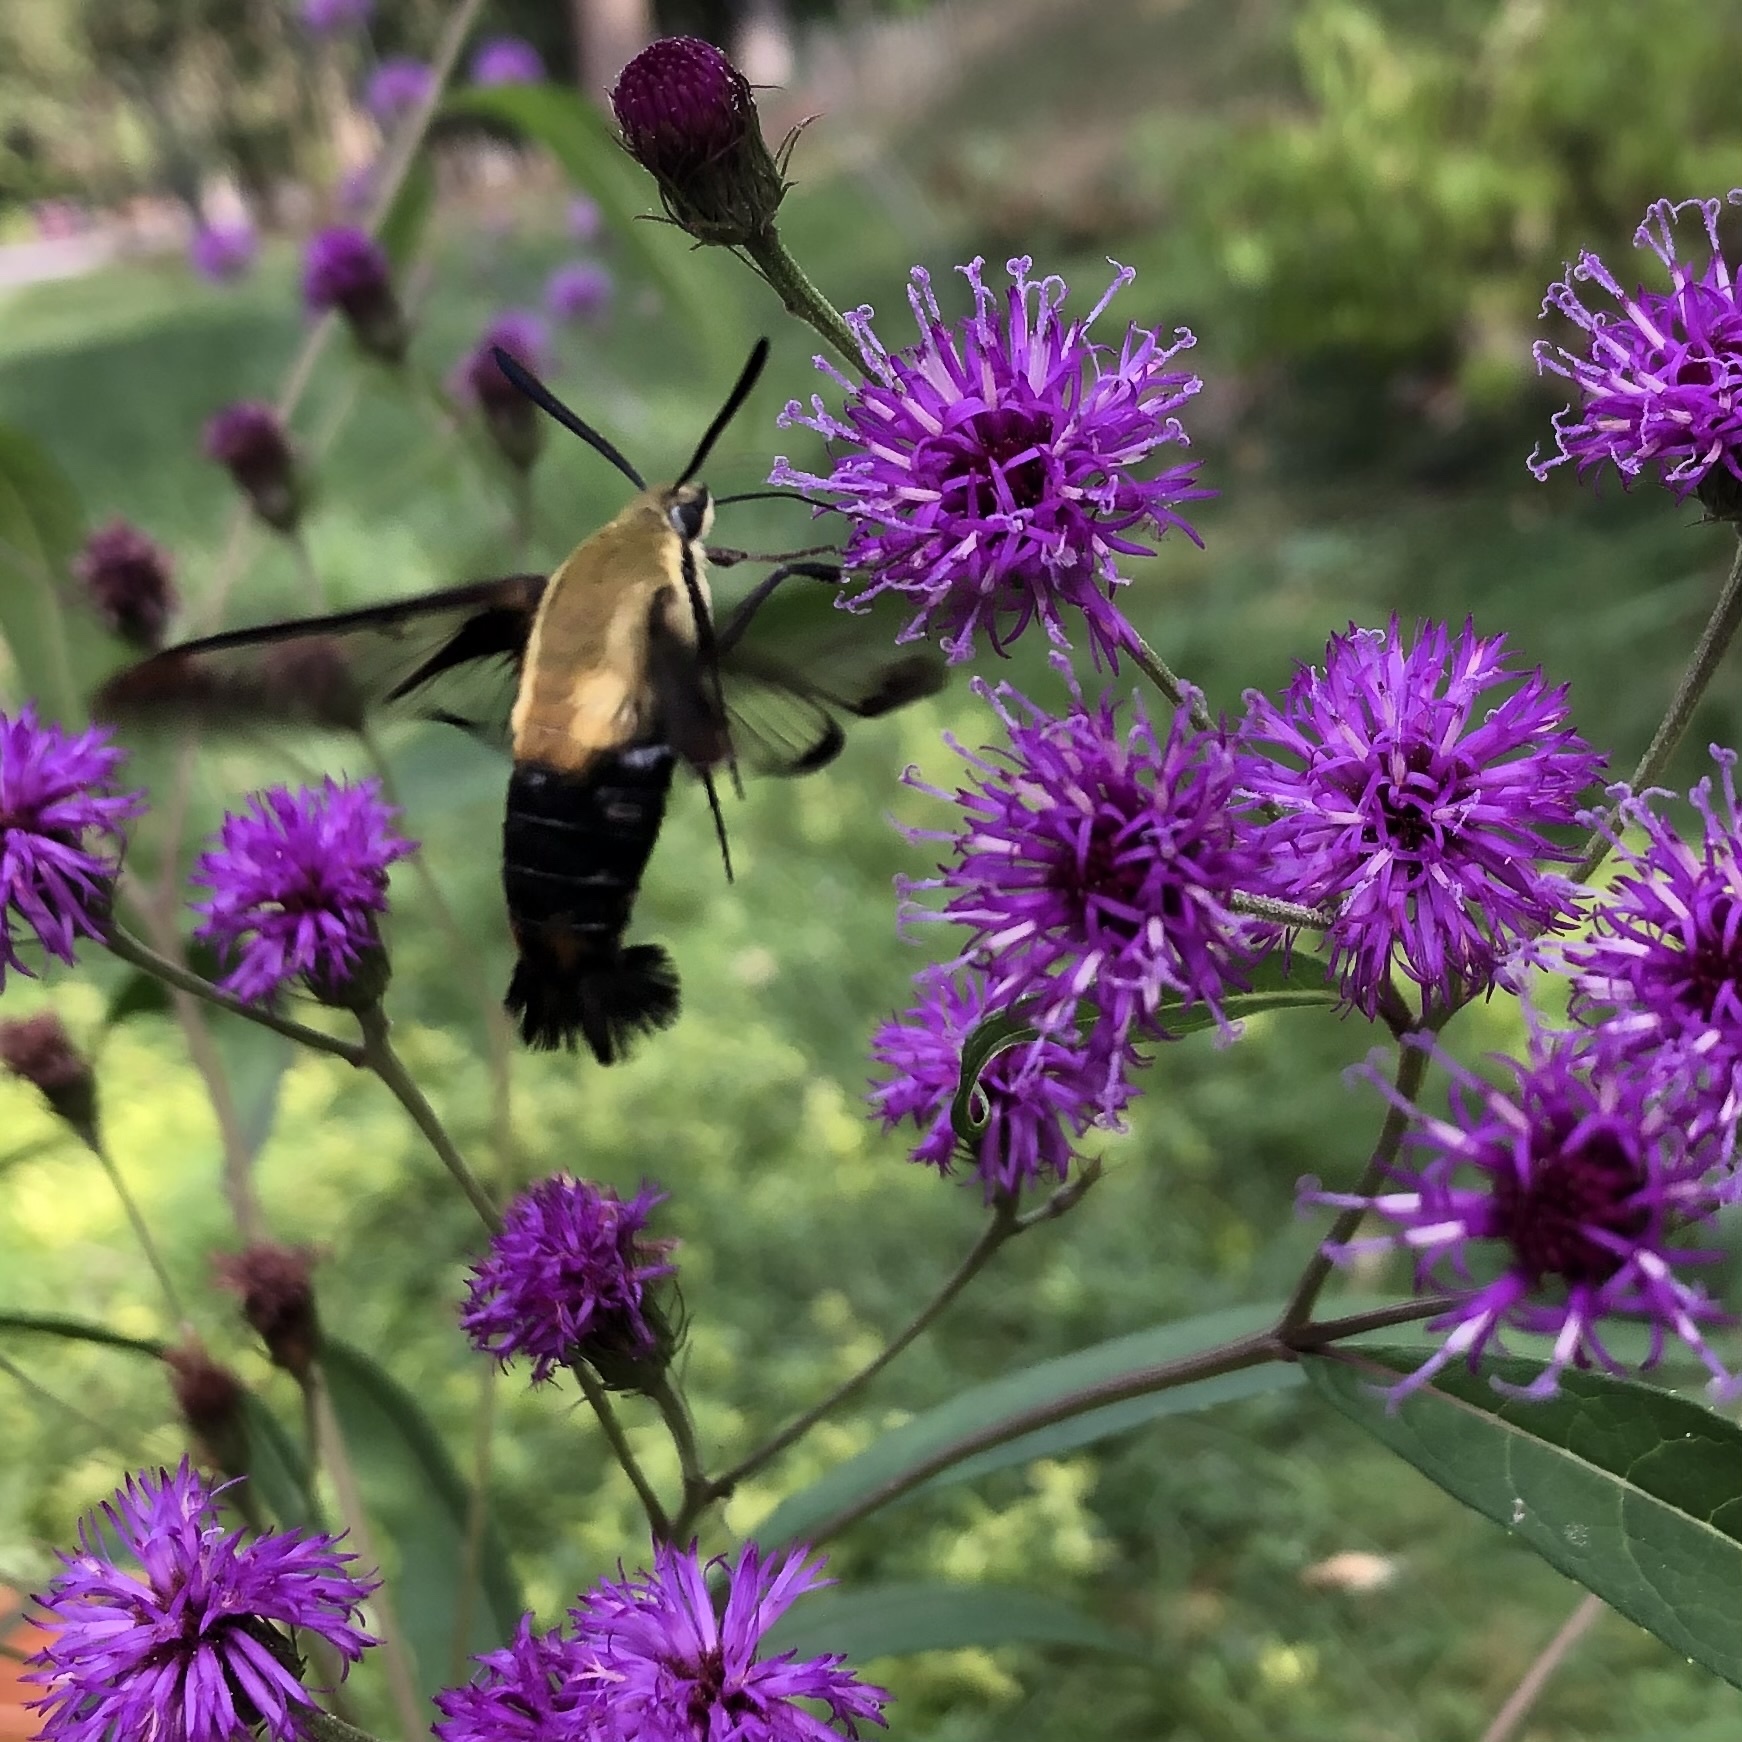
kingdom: Animalia
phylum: Arthropoda
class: Insecta
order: Lepidoptera
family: Sphingidae
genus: Hemaris
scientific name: Hemaris diffinis
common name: Bumblebee moth
